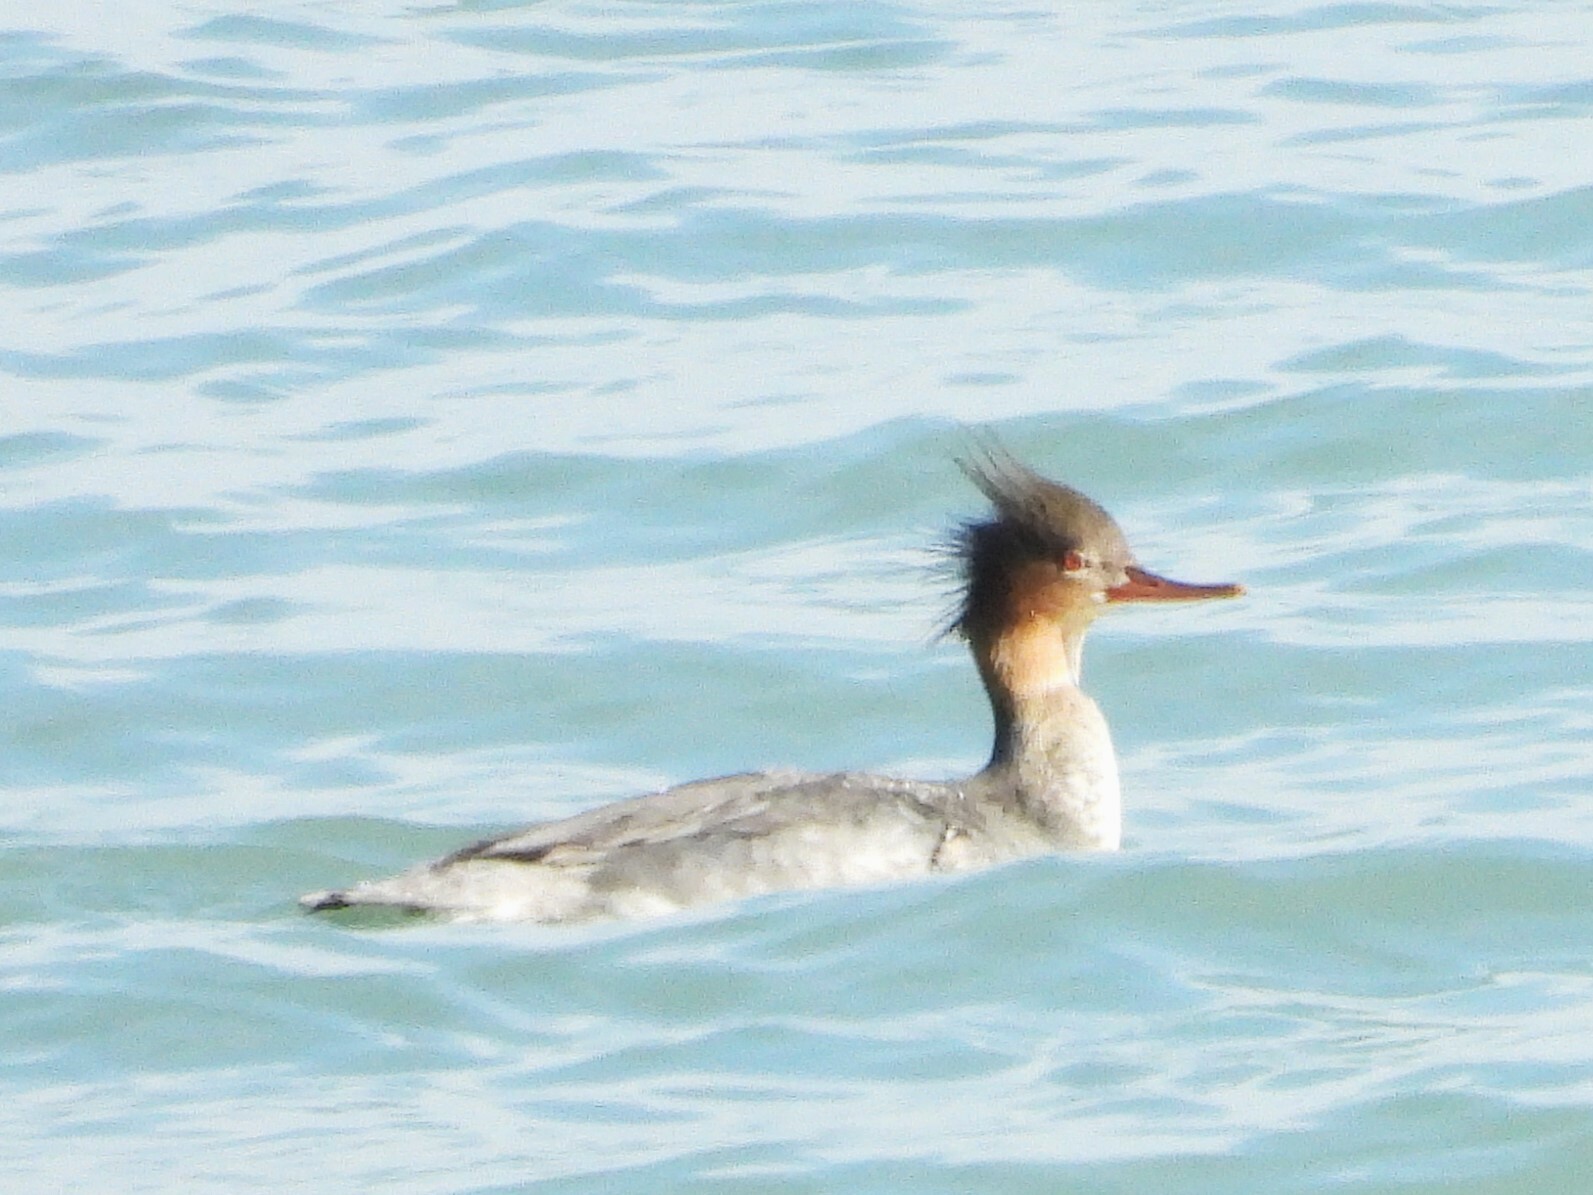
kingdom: Animalia
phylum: Chordata
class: Aves
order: Anseriformes
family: Anatidae
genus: Mergus
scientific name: Mergus serrator
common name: Red-breasted merganser
